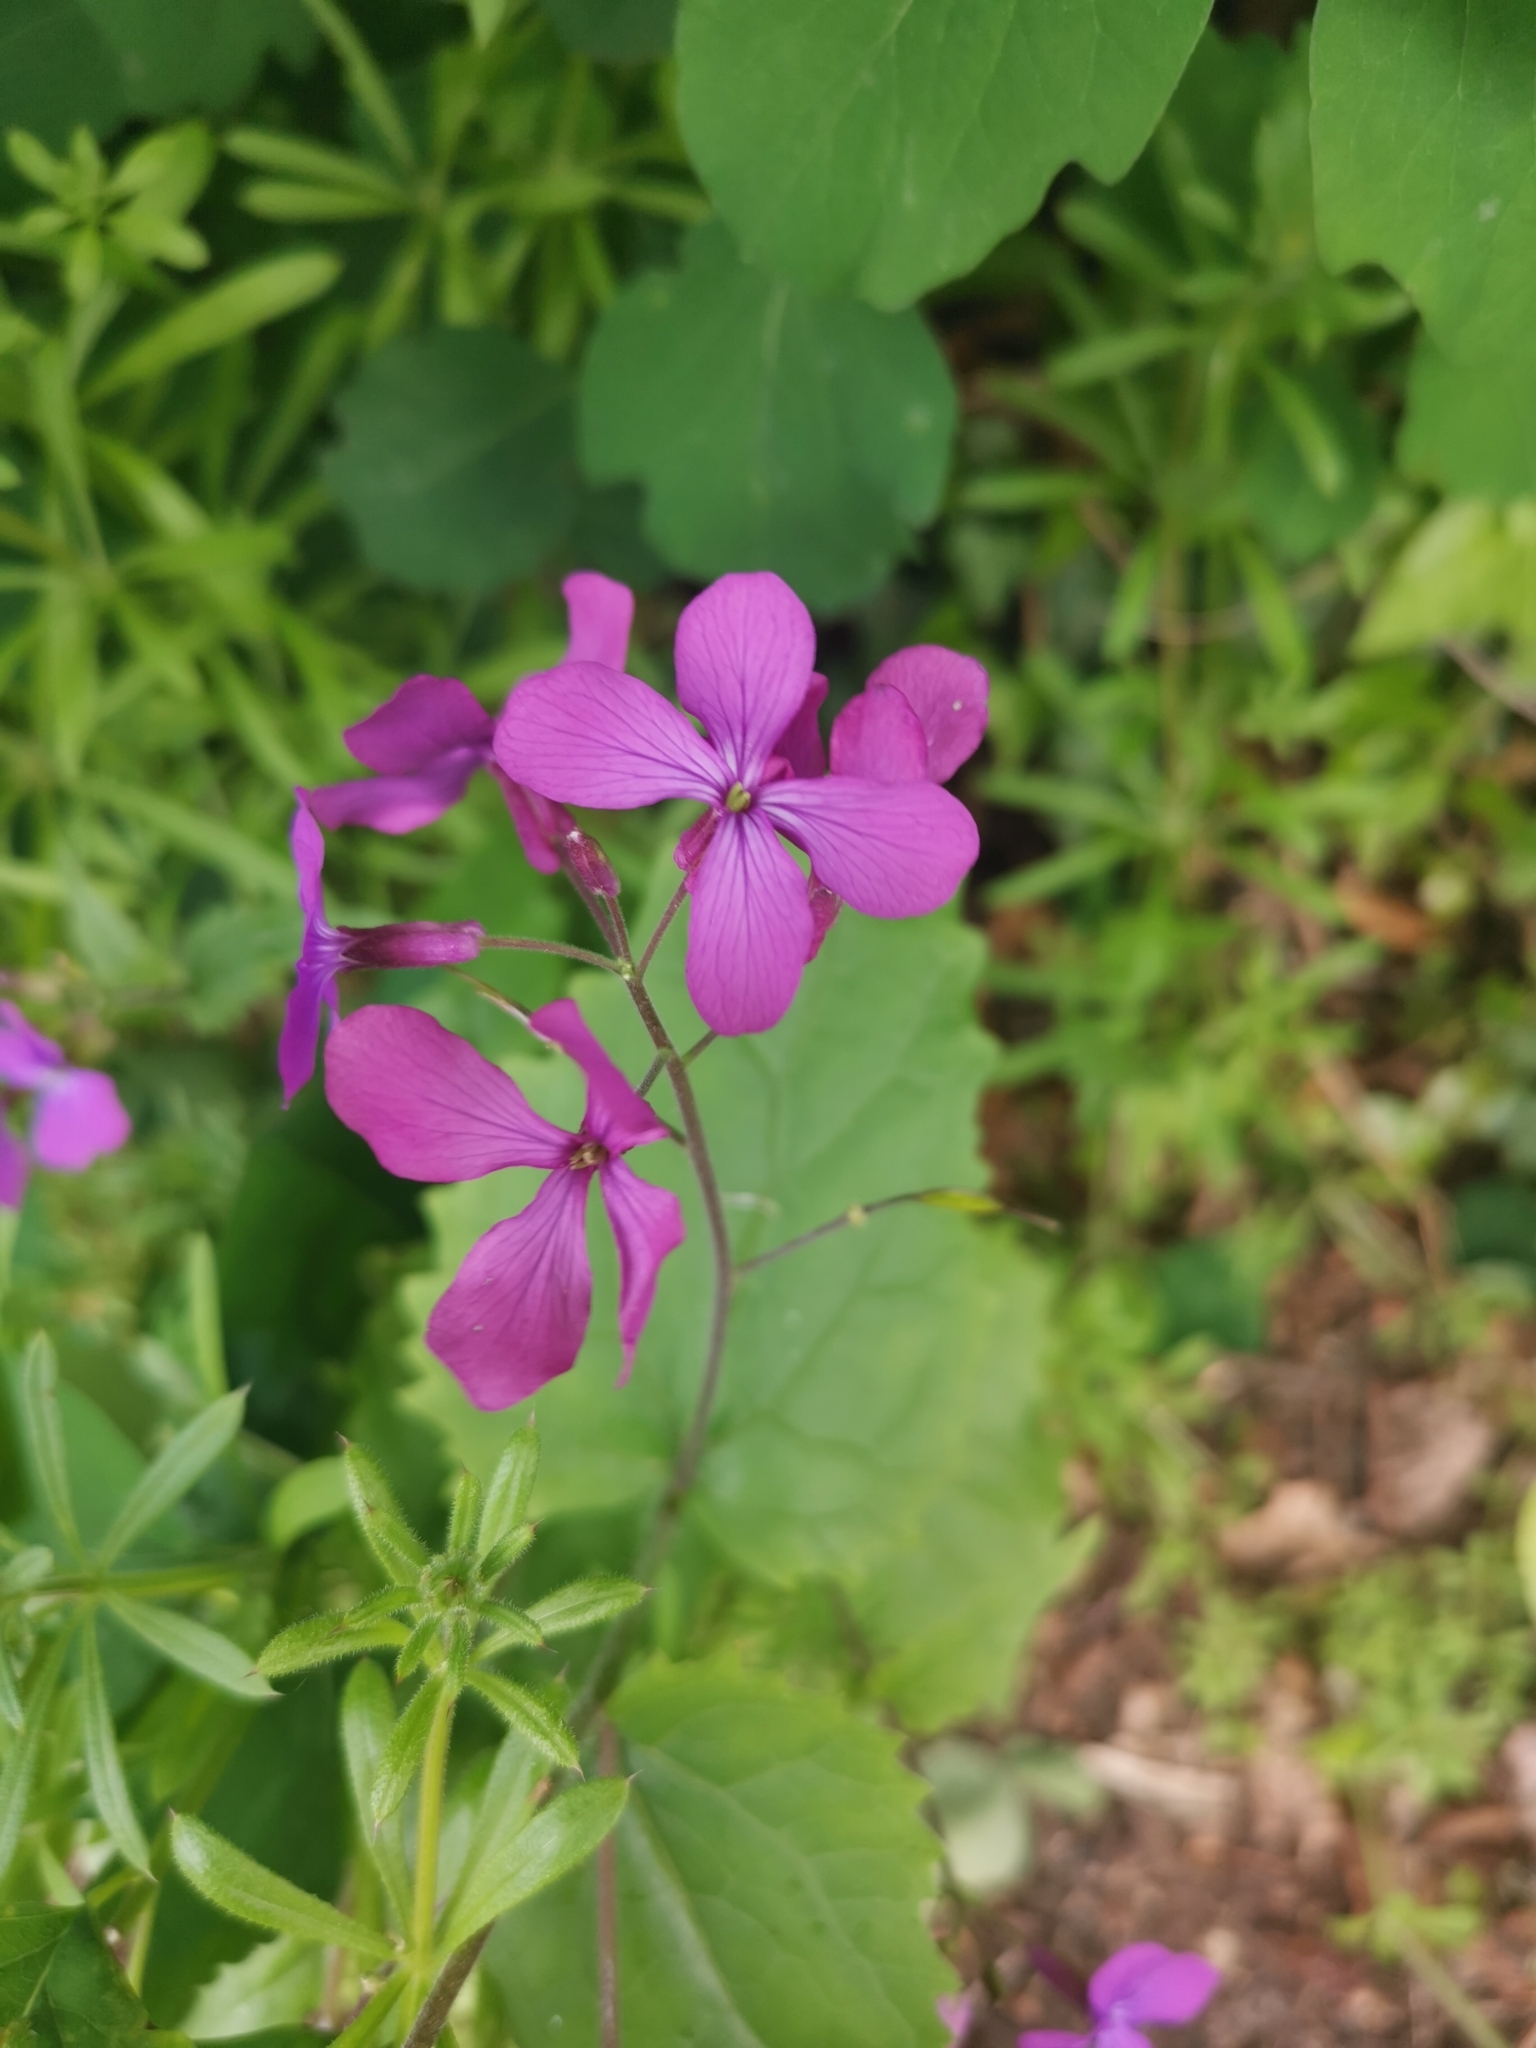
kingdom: Plantae
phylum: Tracheophyta
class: Magnoliopsida
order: Brassicales
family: Brassicaceae
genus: Lunaria
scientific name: Lunaria annua
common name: Honesty
